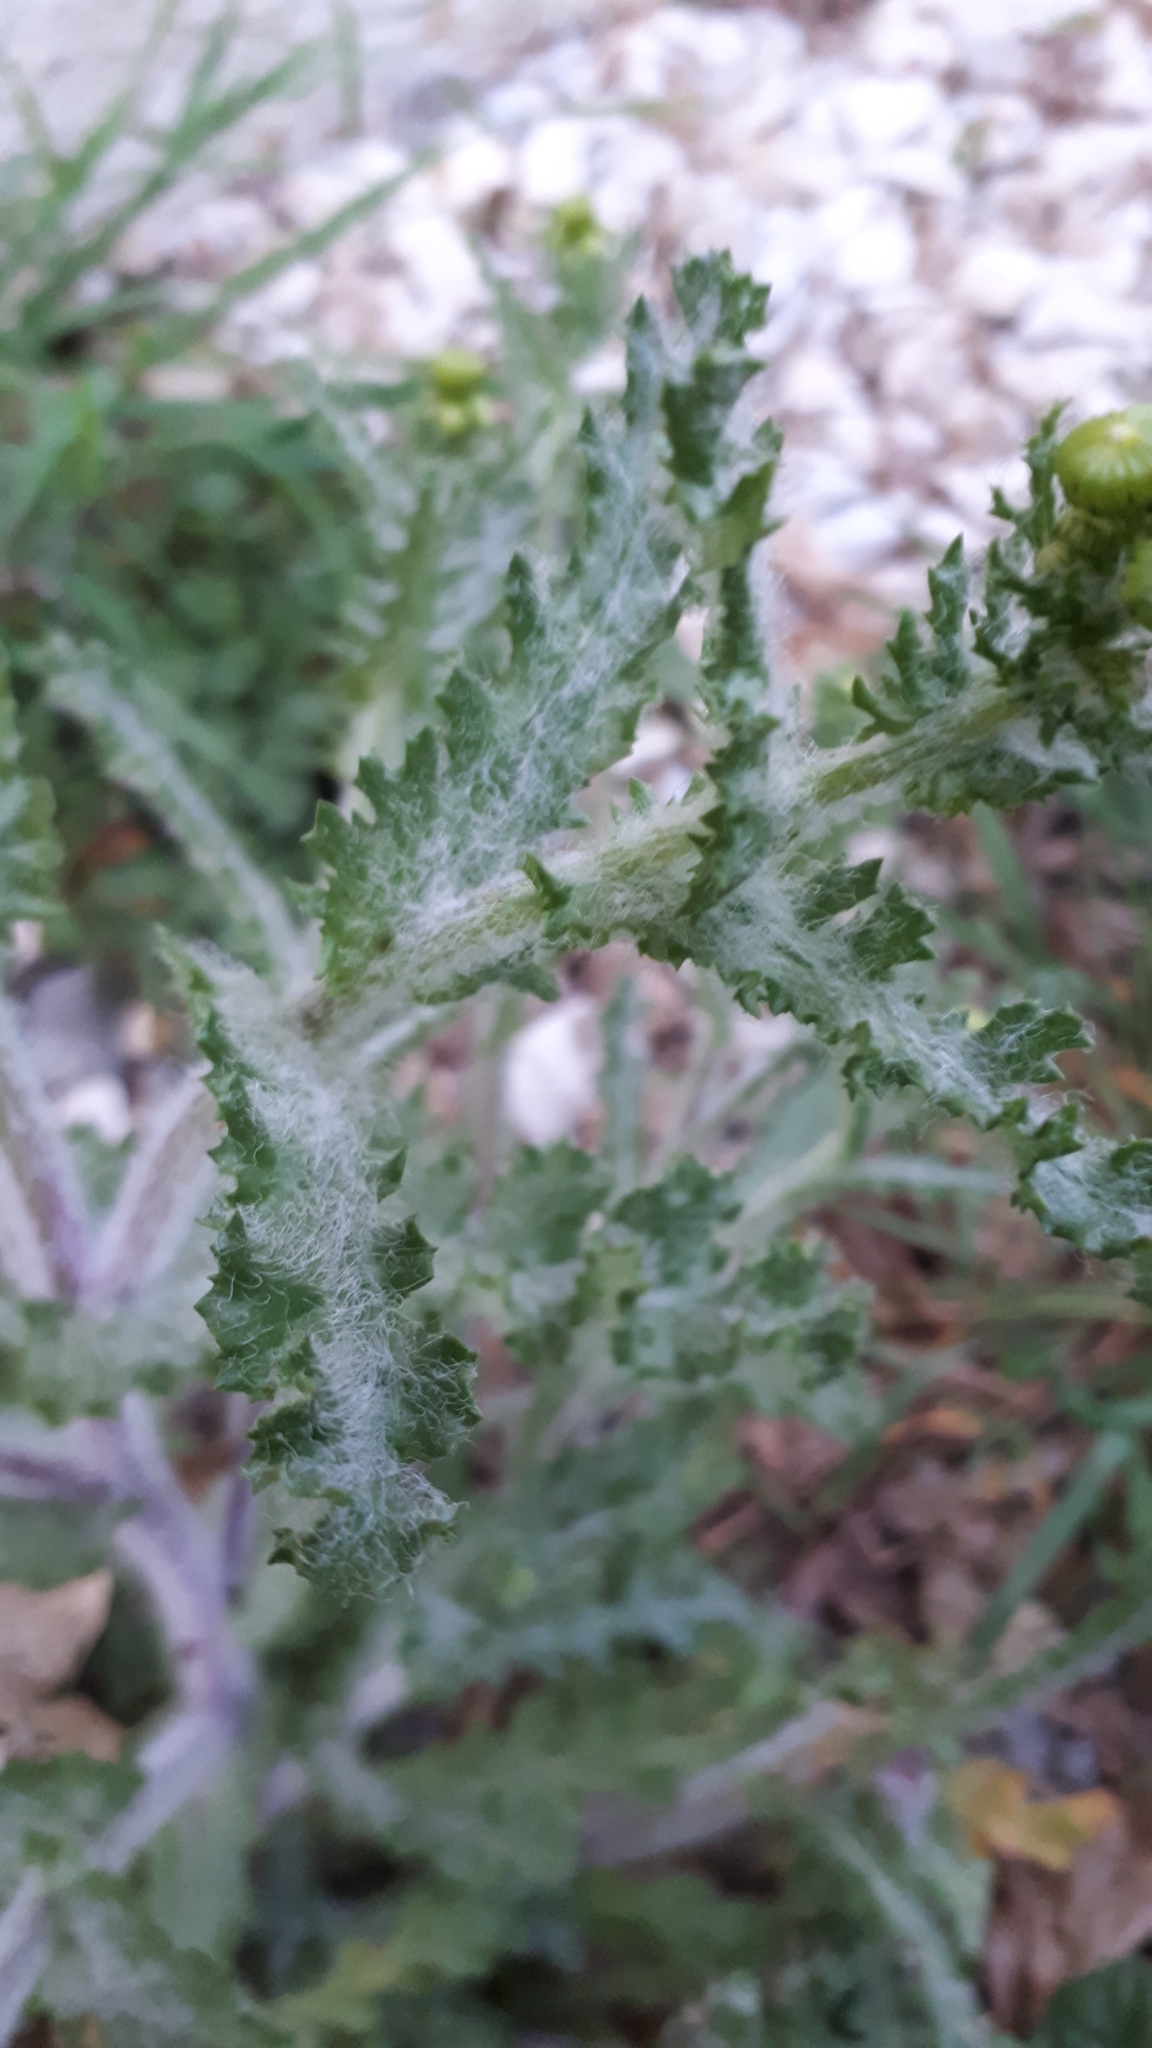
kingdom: Plantae
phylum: Tracheophyta
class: Magnoliopsida
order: Asterales
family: Asteraceae
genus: Senecio
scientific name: Senecio vernalis
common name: Eastern groundsel
